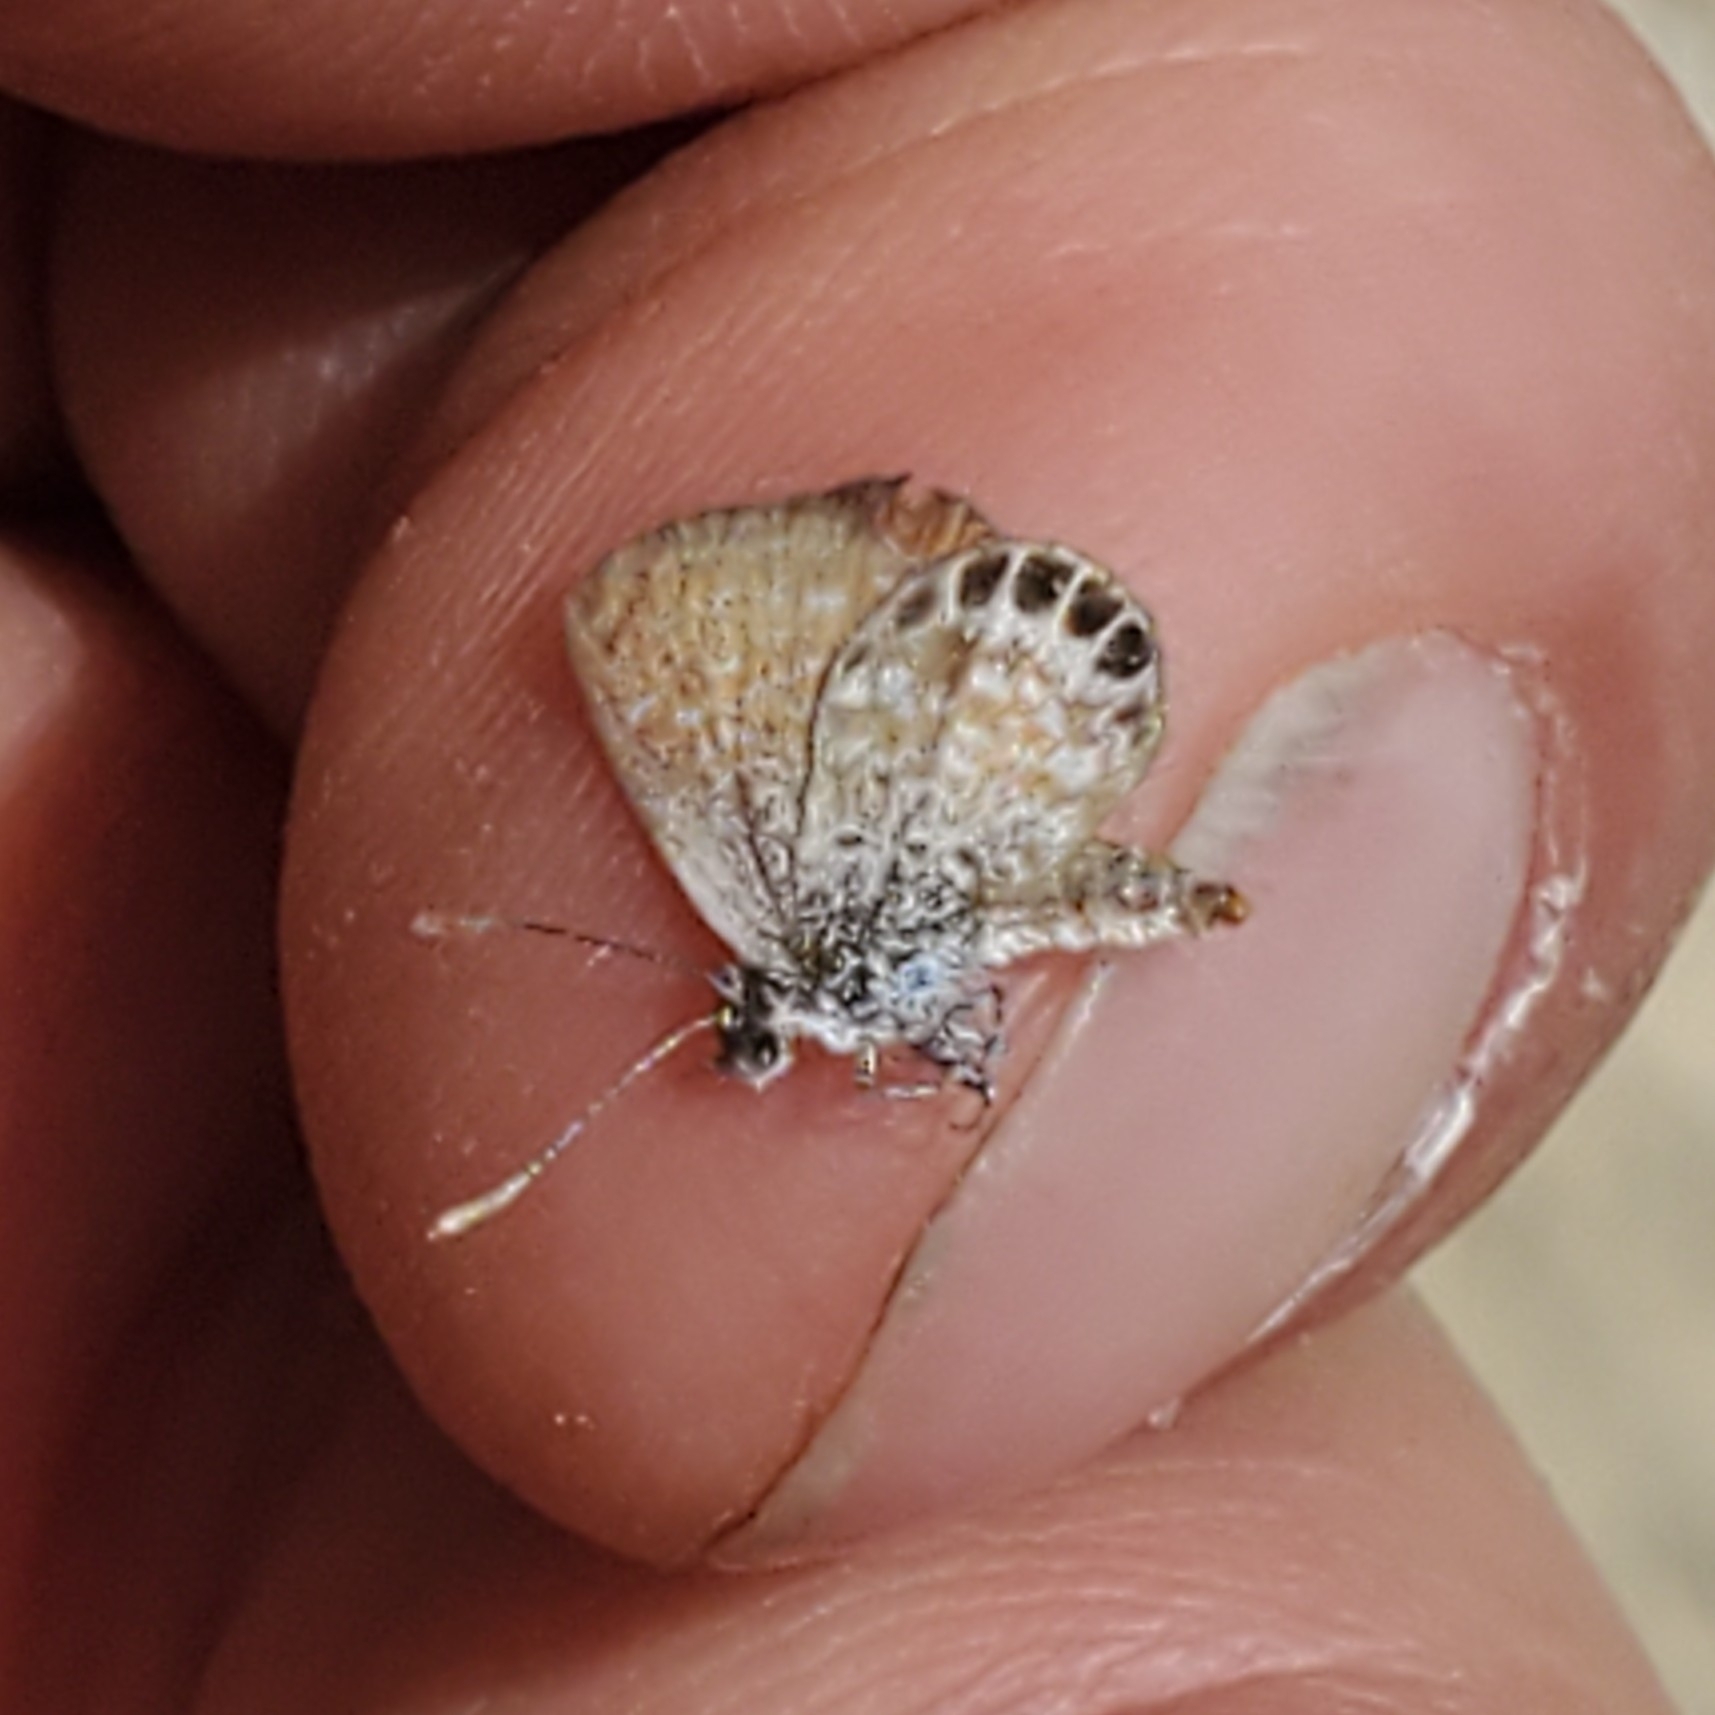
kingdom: Animalia
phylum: Arthropoda
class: Insecta
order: Lepidoptera
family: Lycaenidae
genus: Brephidium
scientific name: Brephidium exilis
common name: Pygmy blue
